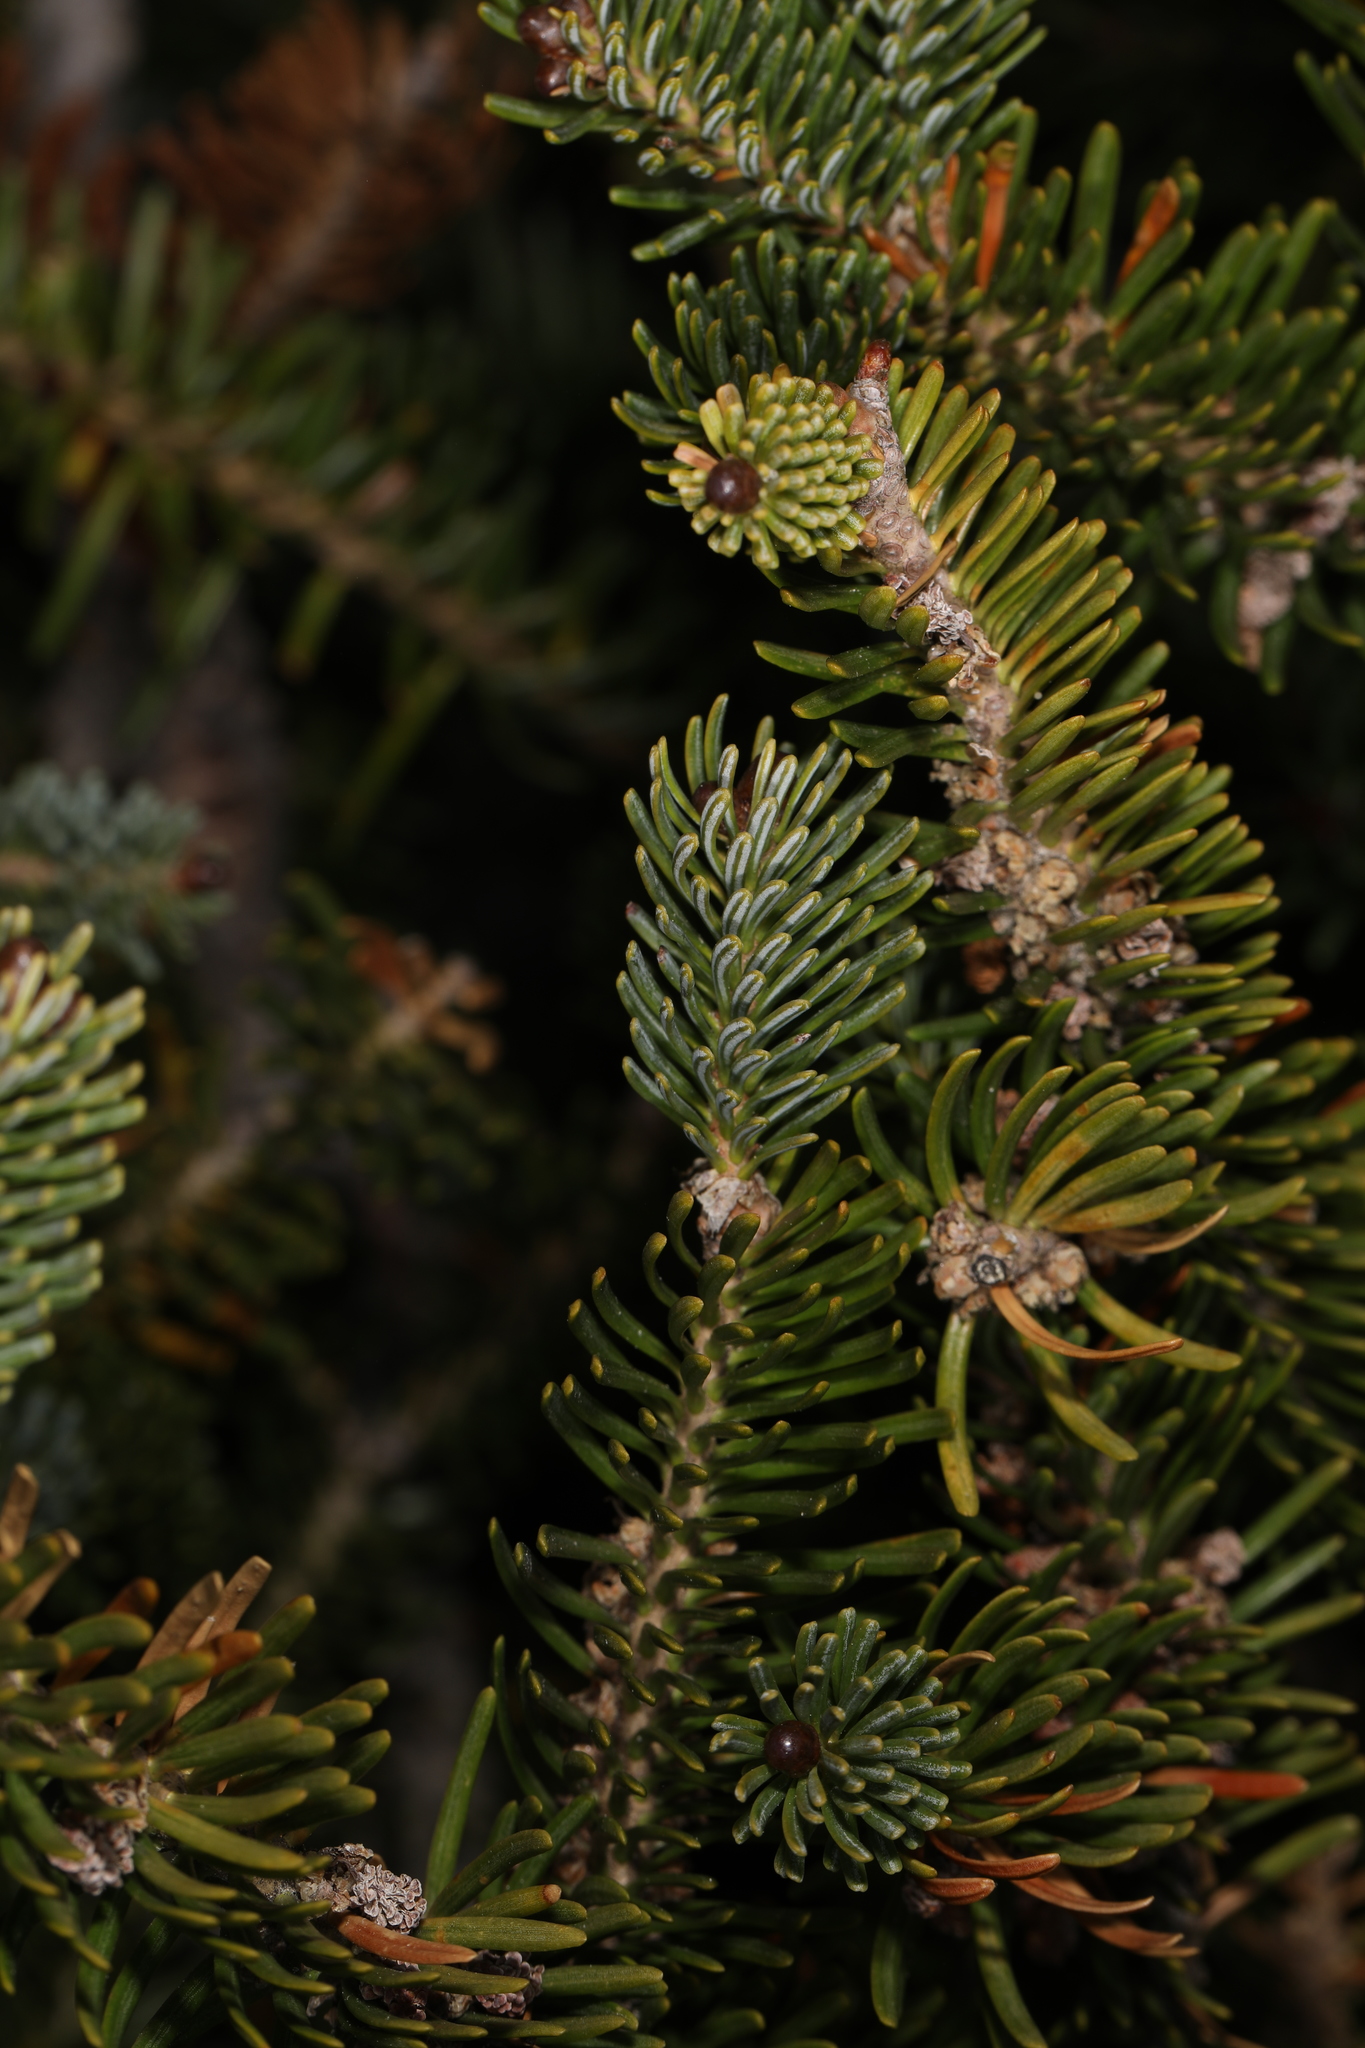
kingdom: Plantae
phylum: Tracheophyta
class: Pinopsida
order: Pinales
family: Pinaceae
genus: Abies
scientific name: Abies balsamea
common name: Balsam fir
